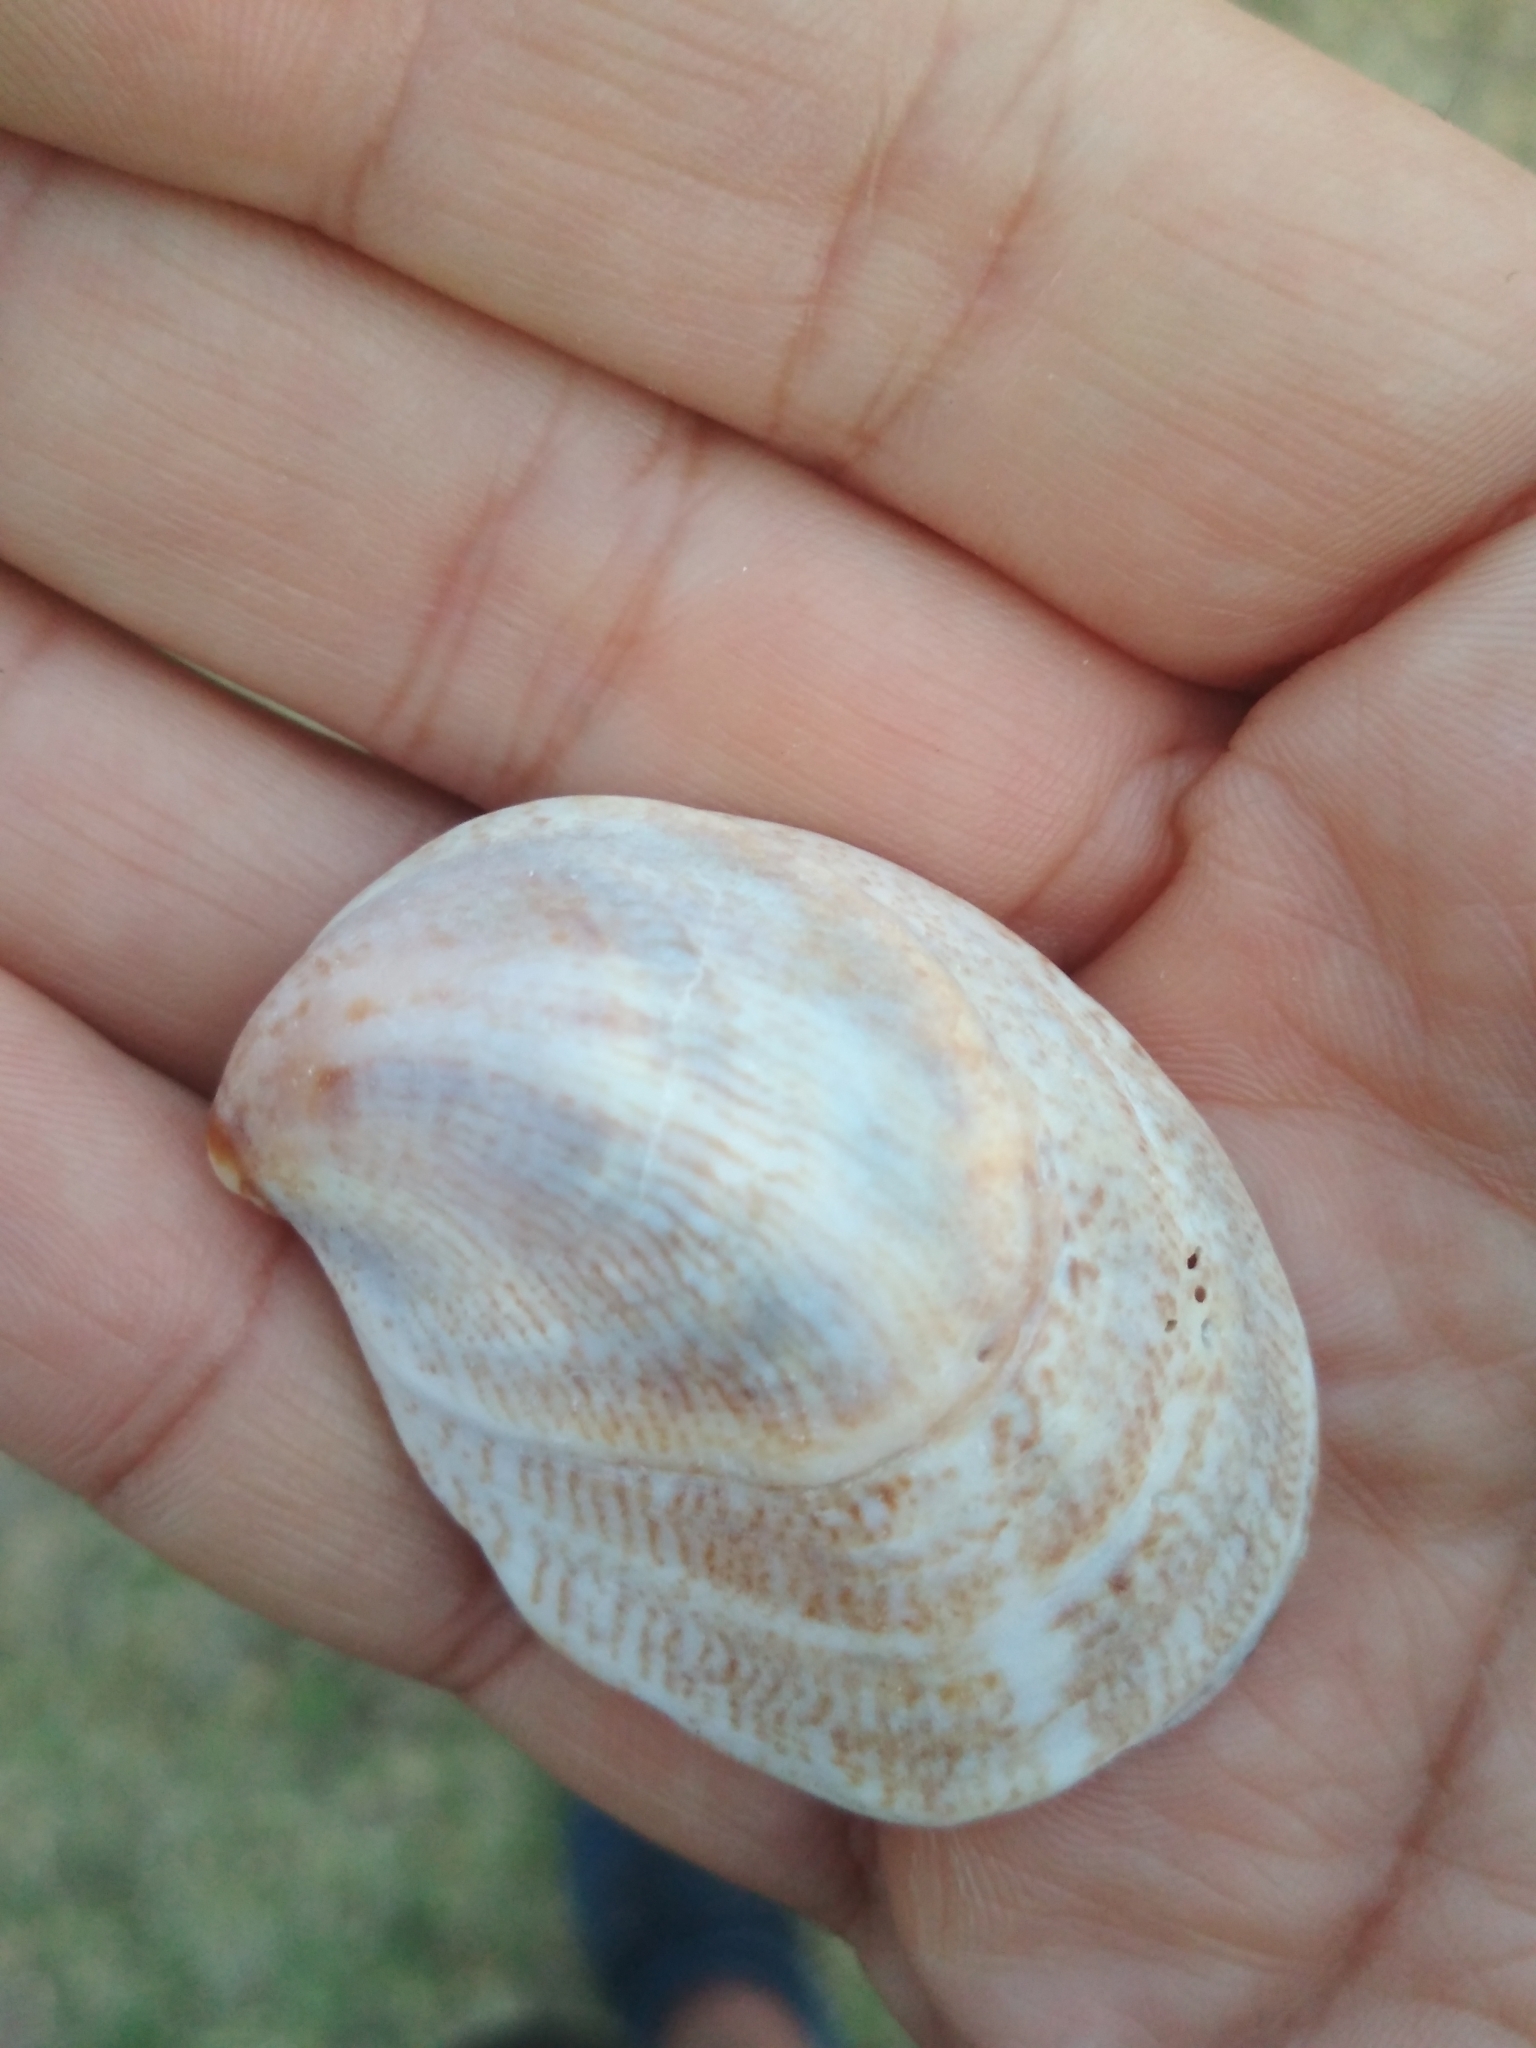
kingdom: Animalia
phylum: Mollusca
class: Gastropoda
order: Littorinimorpha
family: Calyptraeidae
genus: Crepidula
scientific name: Crepidula fornicata
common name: Slipper limpet
